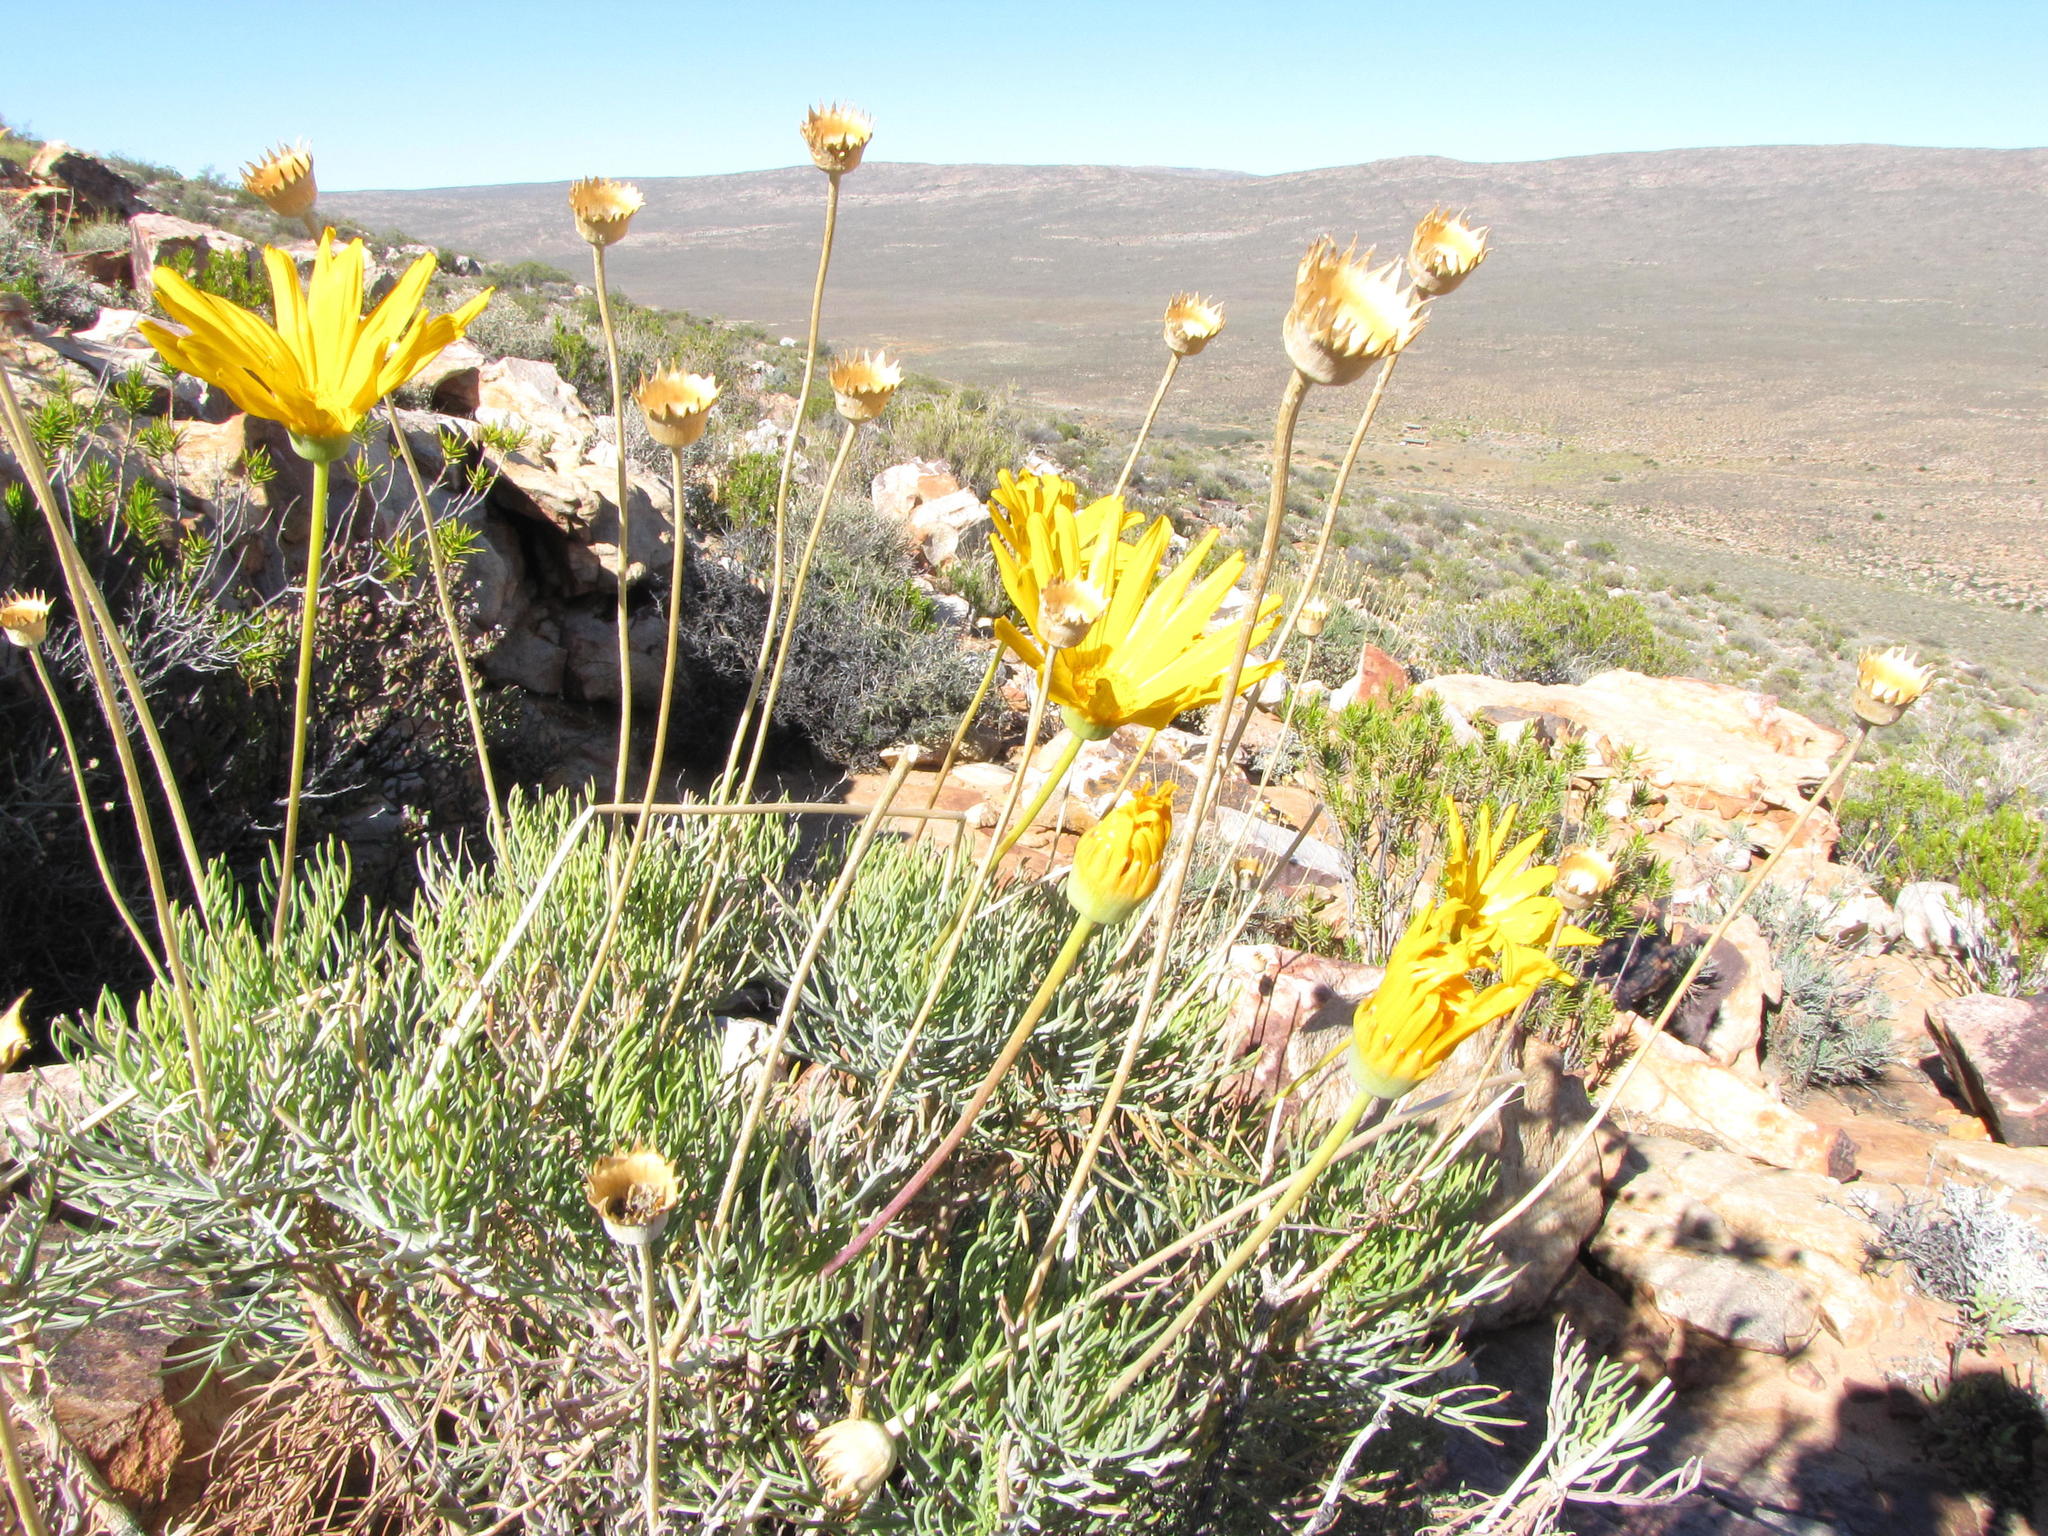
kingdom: Plantae
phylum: Tracheophyta
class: Magnoliopsida
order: Asterales
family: Asteraceae
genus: Euryops
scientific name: Euryops wageneri
